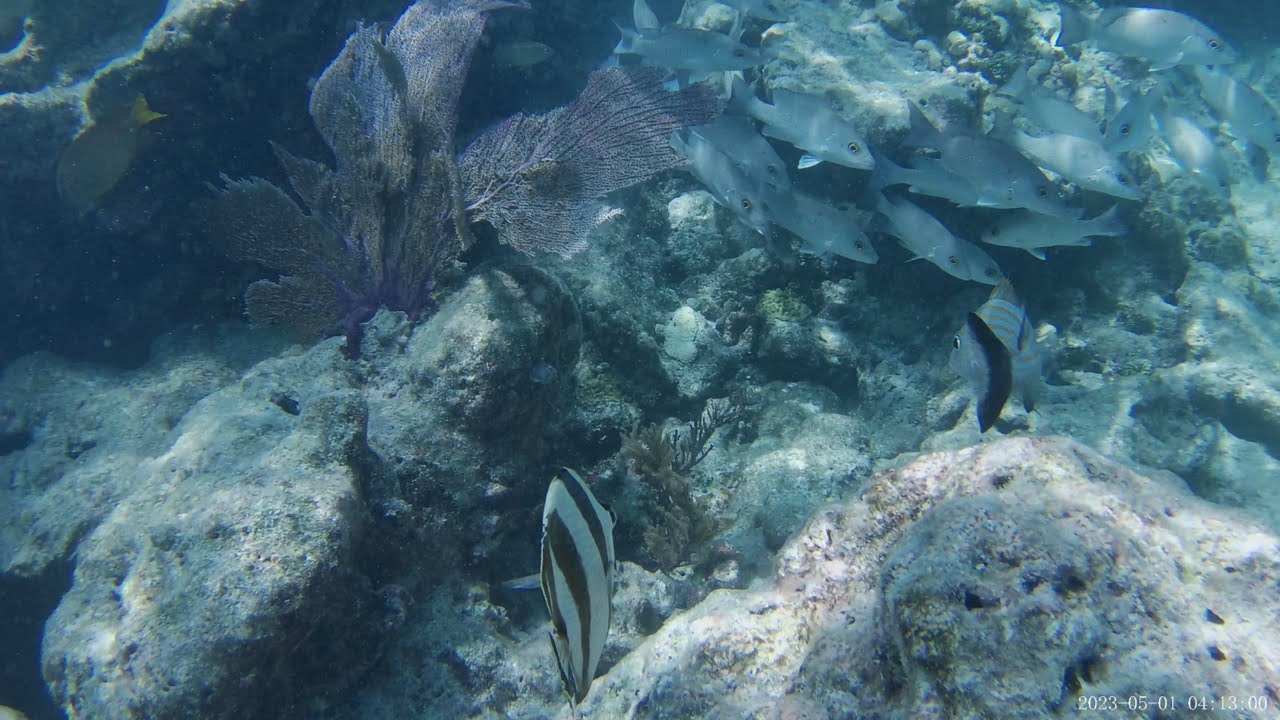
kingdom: Animalia
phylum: Chordata
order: Perciformes
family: Lutjanidae
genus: Lutjanus
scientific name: Lutjanus griseus
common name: Gray snapper
